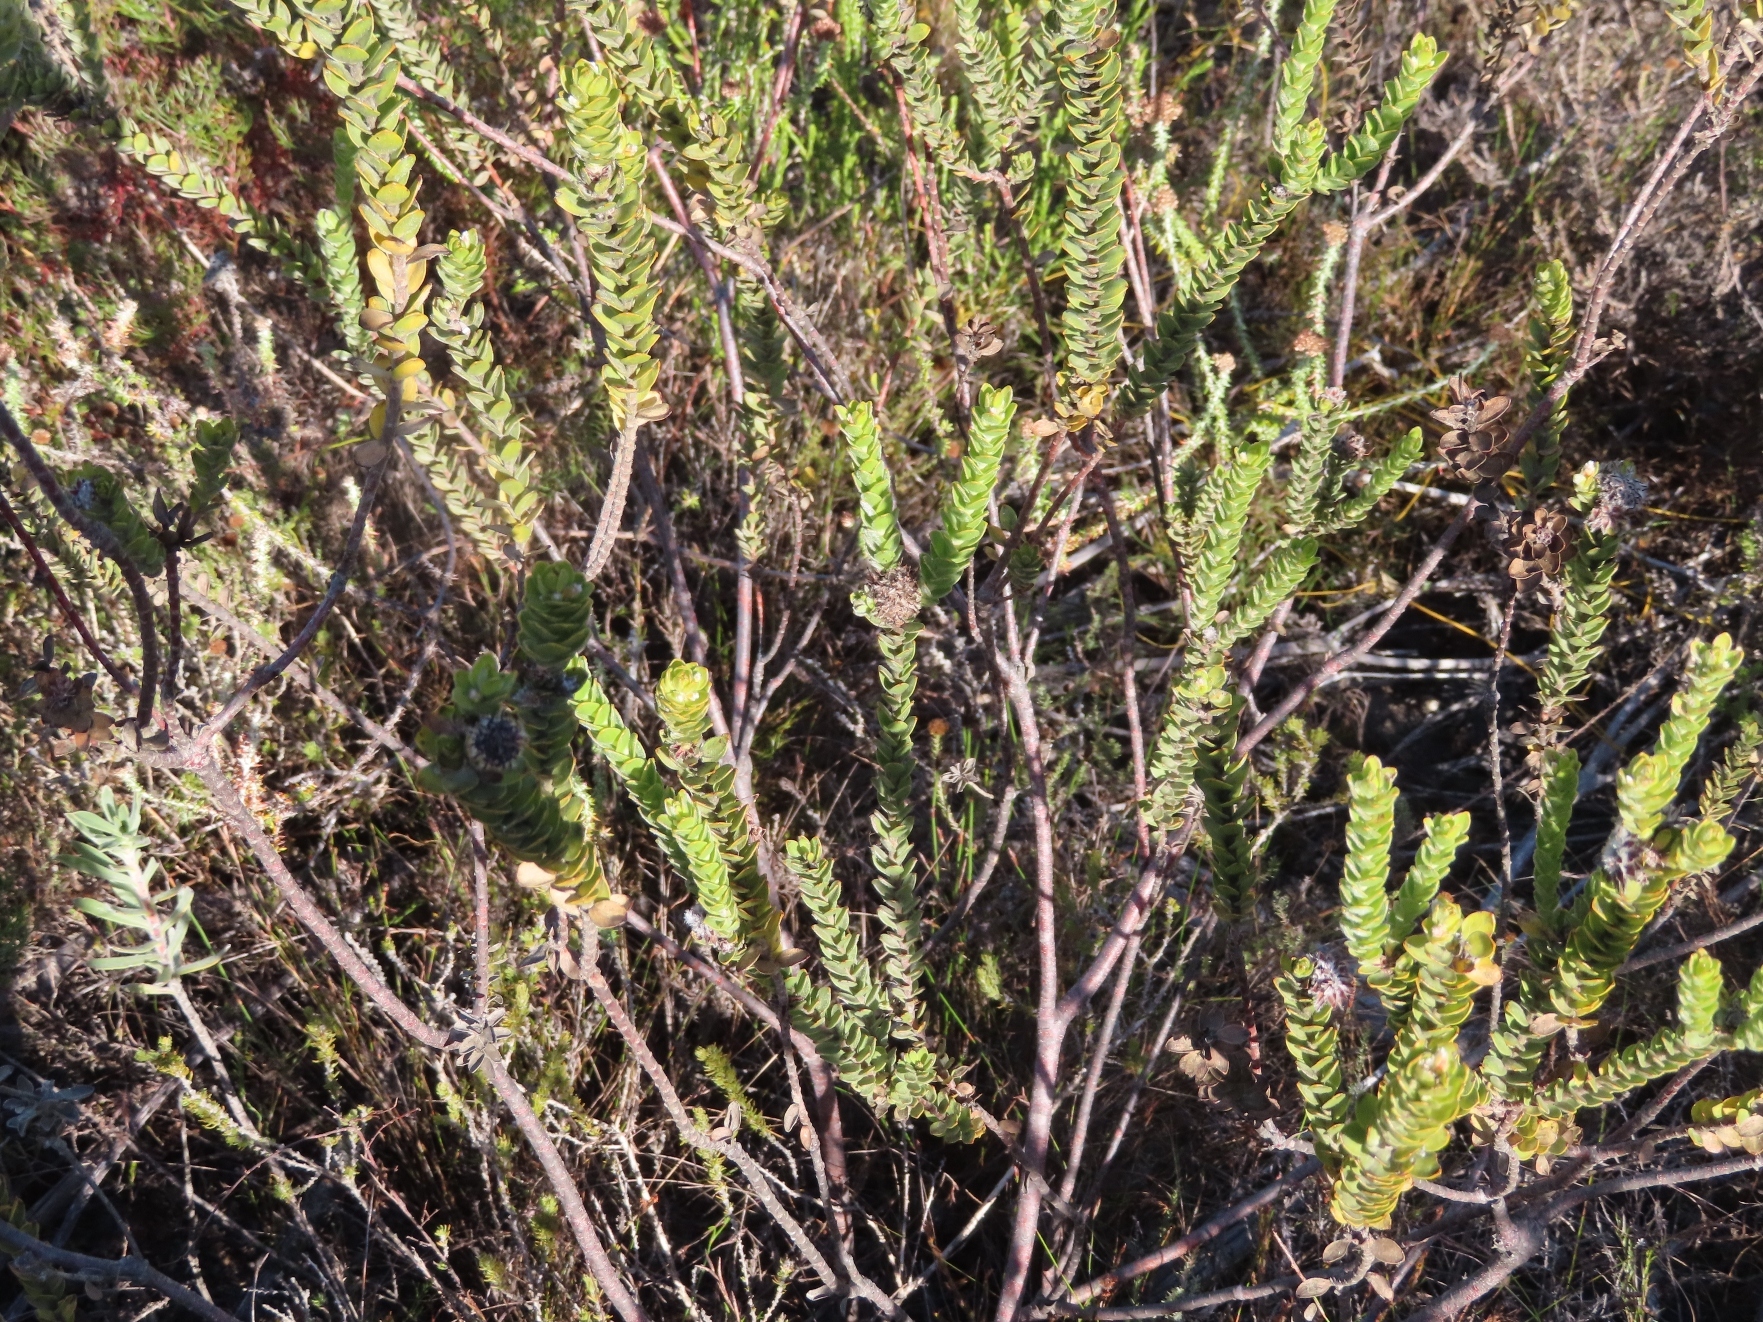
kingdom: Plantae
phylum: Tracheophyta
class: Magnoliopsida
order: Proteales
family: Proteaceae
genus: Leucospermum
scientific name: Leucospermum truncatulum
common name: Oval-leaf pincushion
